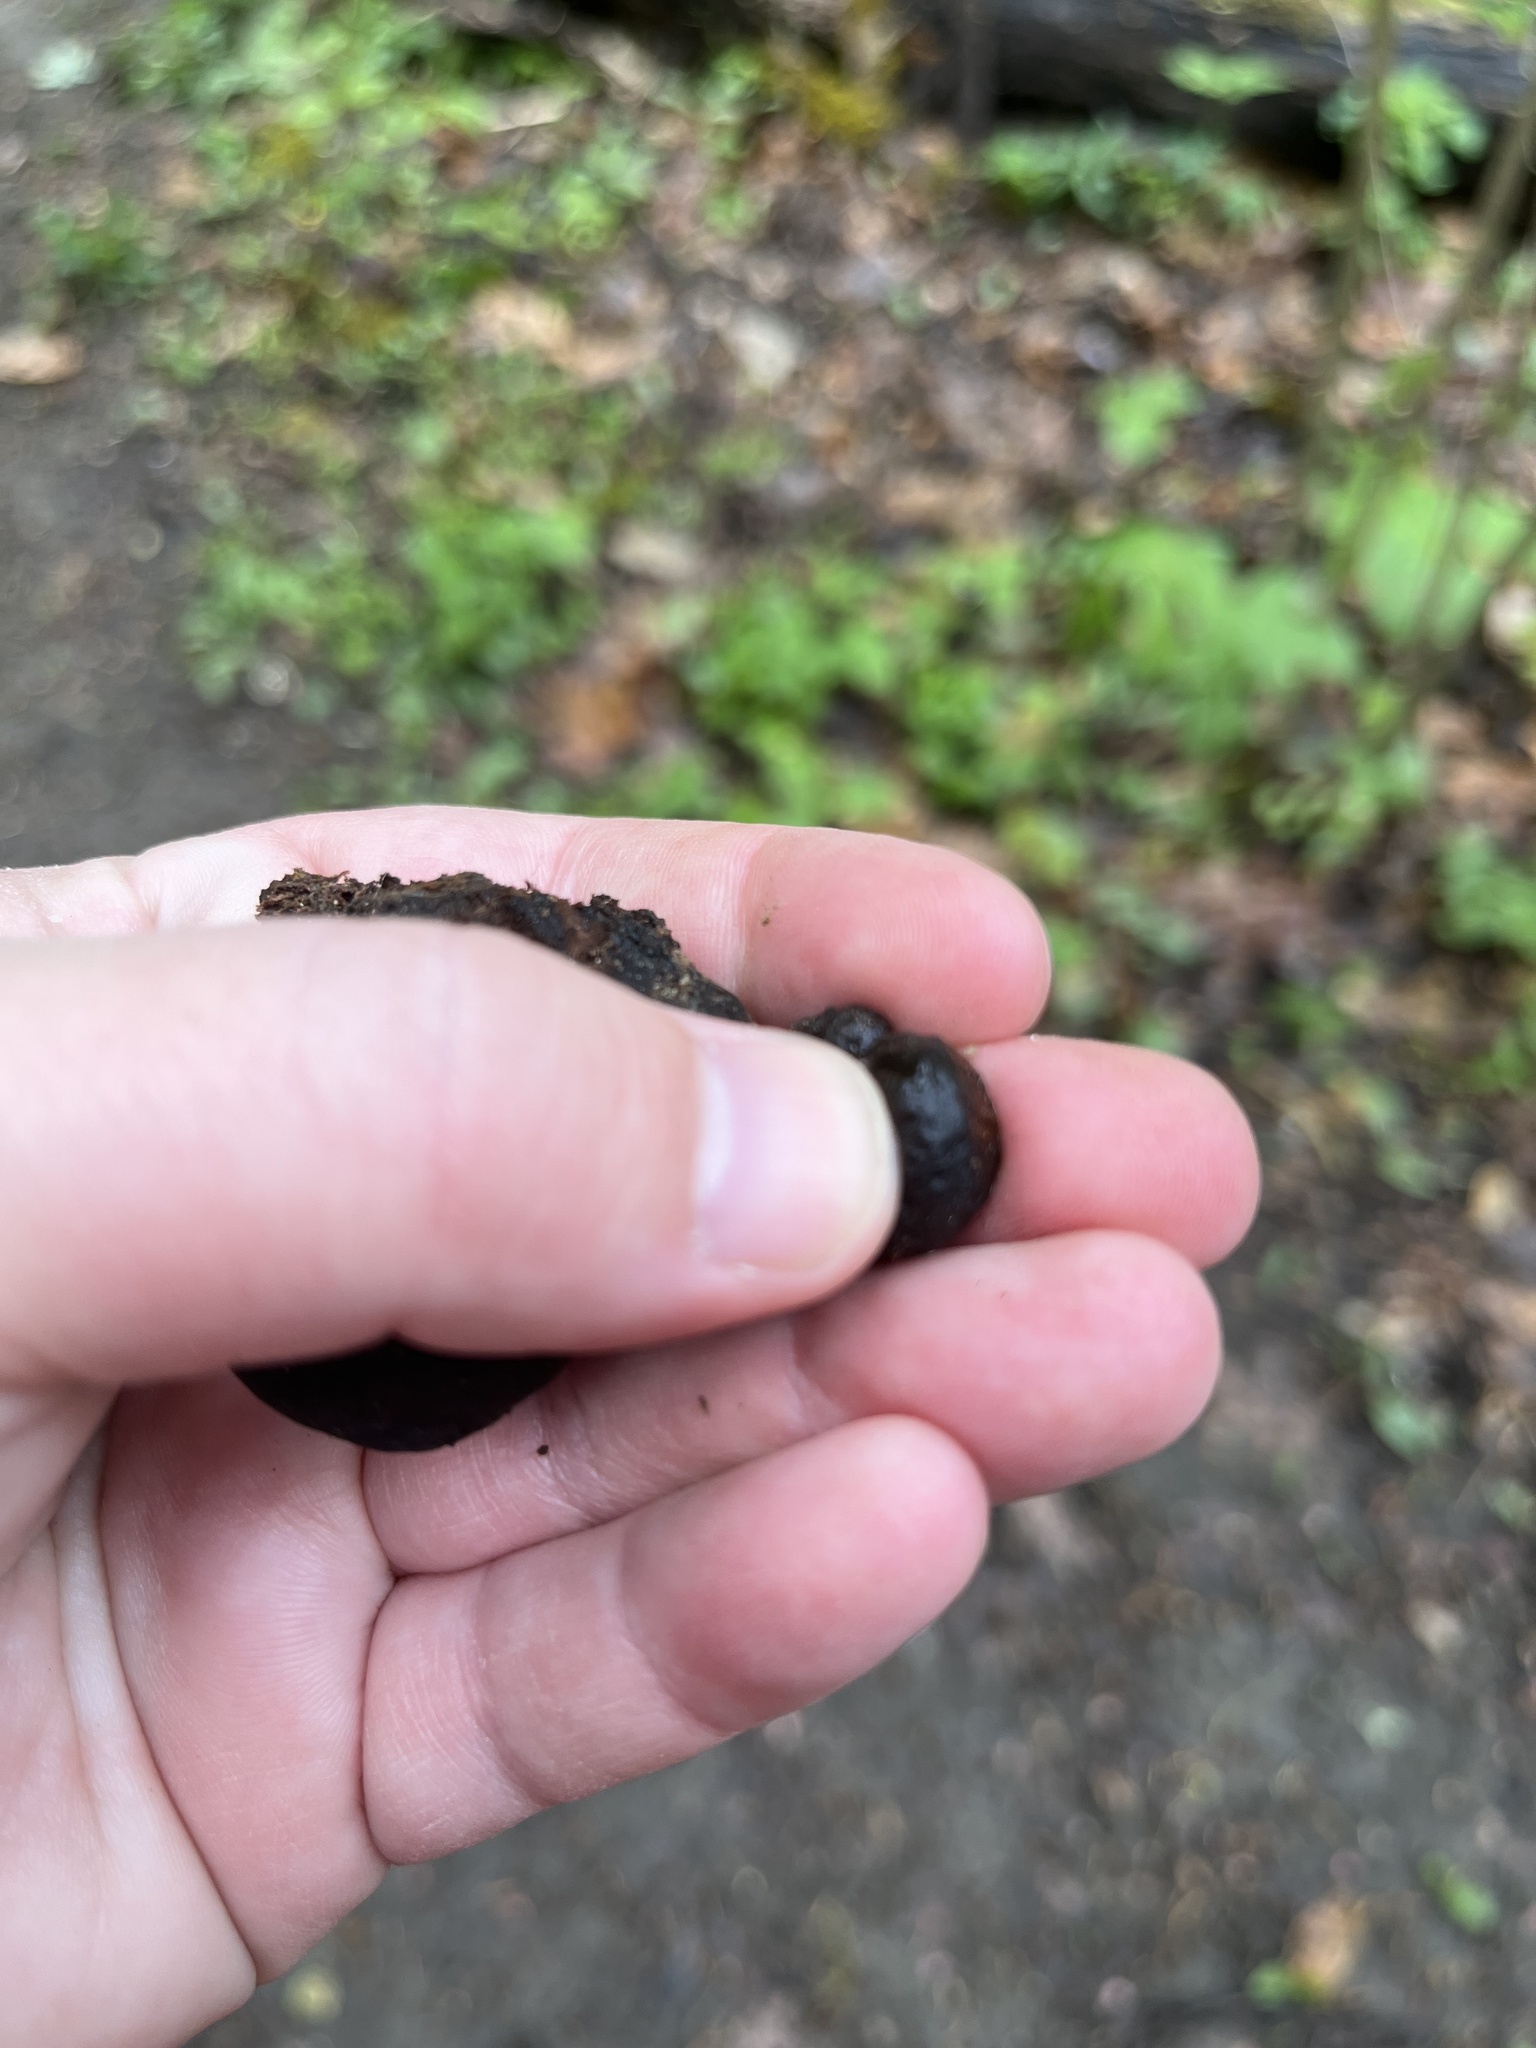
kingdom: Fungi
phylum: Ascomycota
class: Sordariomycetes
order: Boliniales
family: Boliniaceae
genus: Camarops
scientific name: Camarops petersii
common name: Dog's nose fungus
